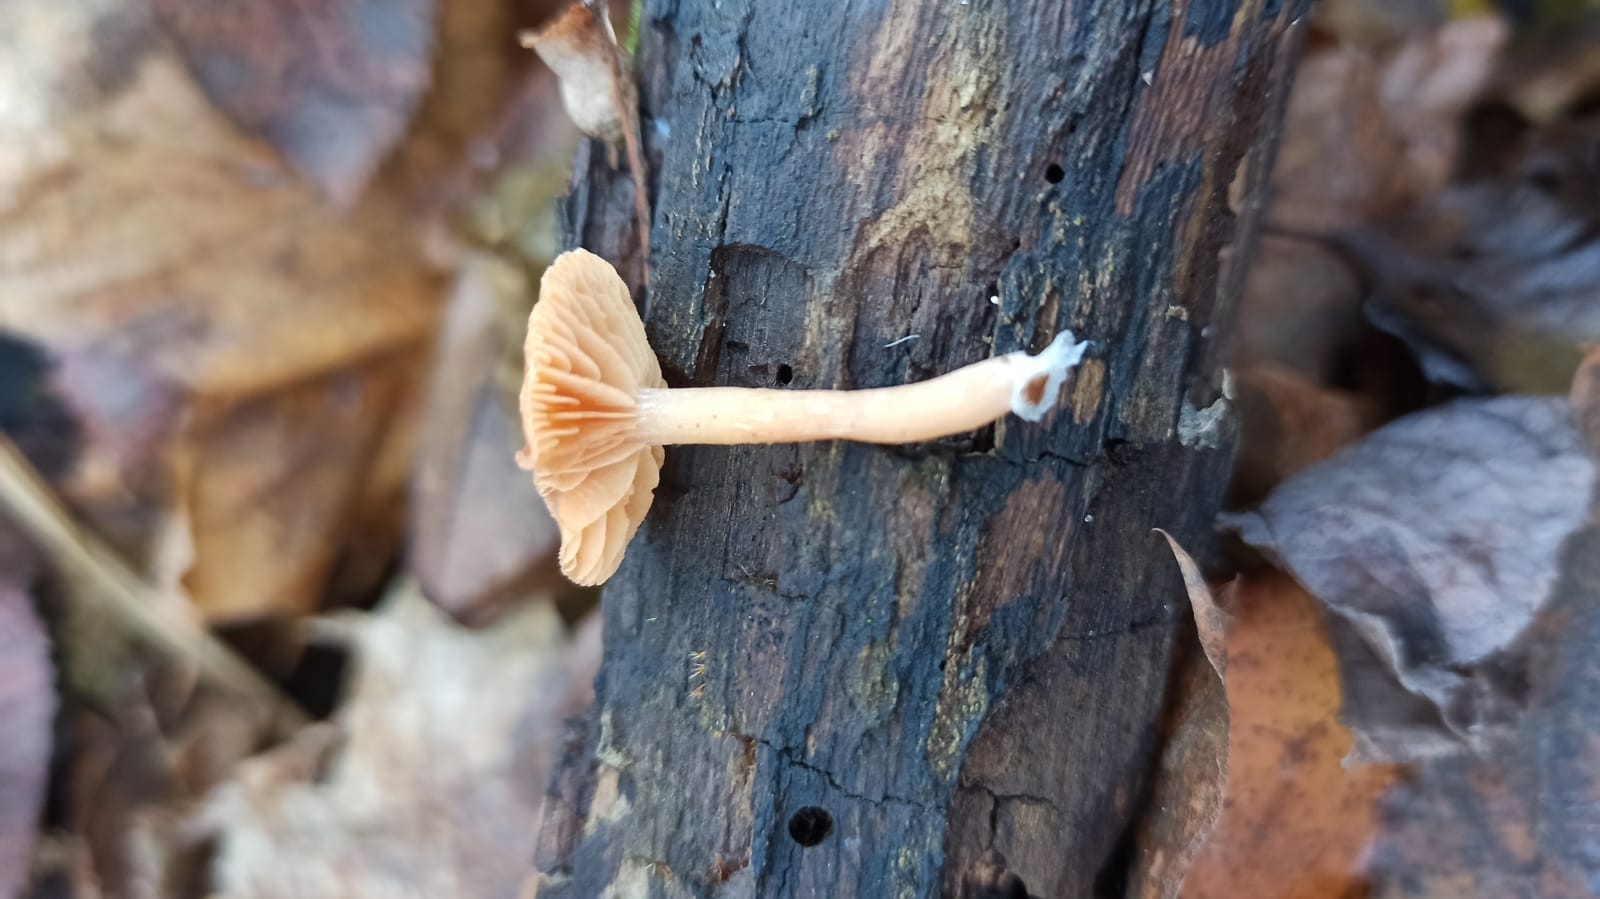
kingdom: Fungi
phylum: Basidiomycota
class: Agaricomycetes
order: Agaricales
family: Tubariaceae
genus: Tubaria
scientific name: Tubaria furfuracea
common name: Scurfy twiglet
